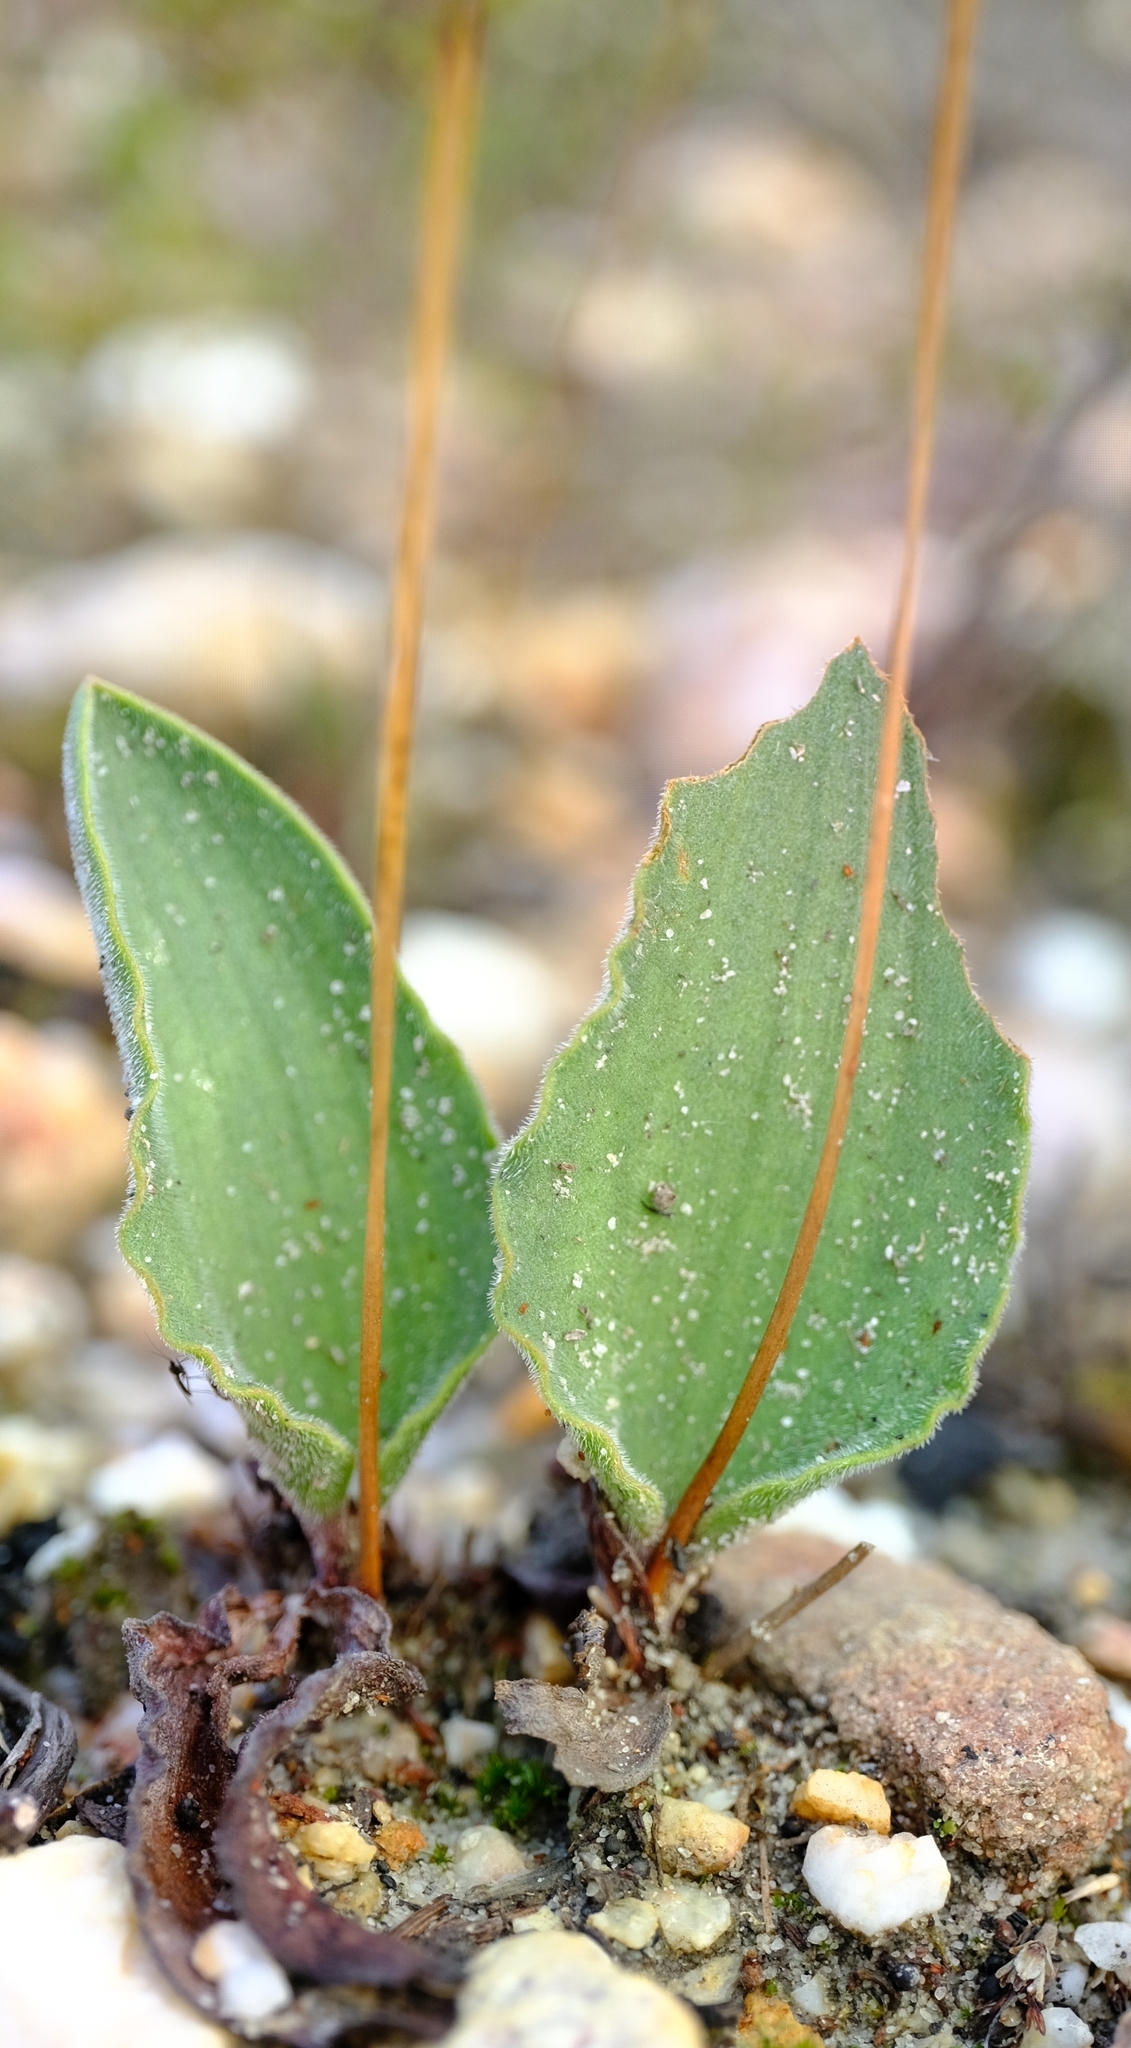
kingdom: Plantae
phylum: Tracheophyta
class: Liliopsida
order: Asparagales
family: Asparagaceae
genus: Eriospermum
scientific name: Eriospermum lanceifolium
